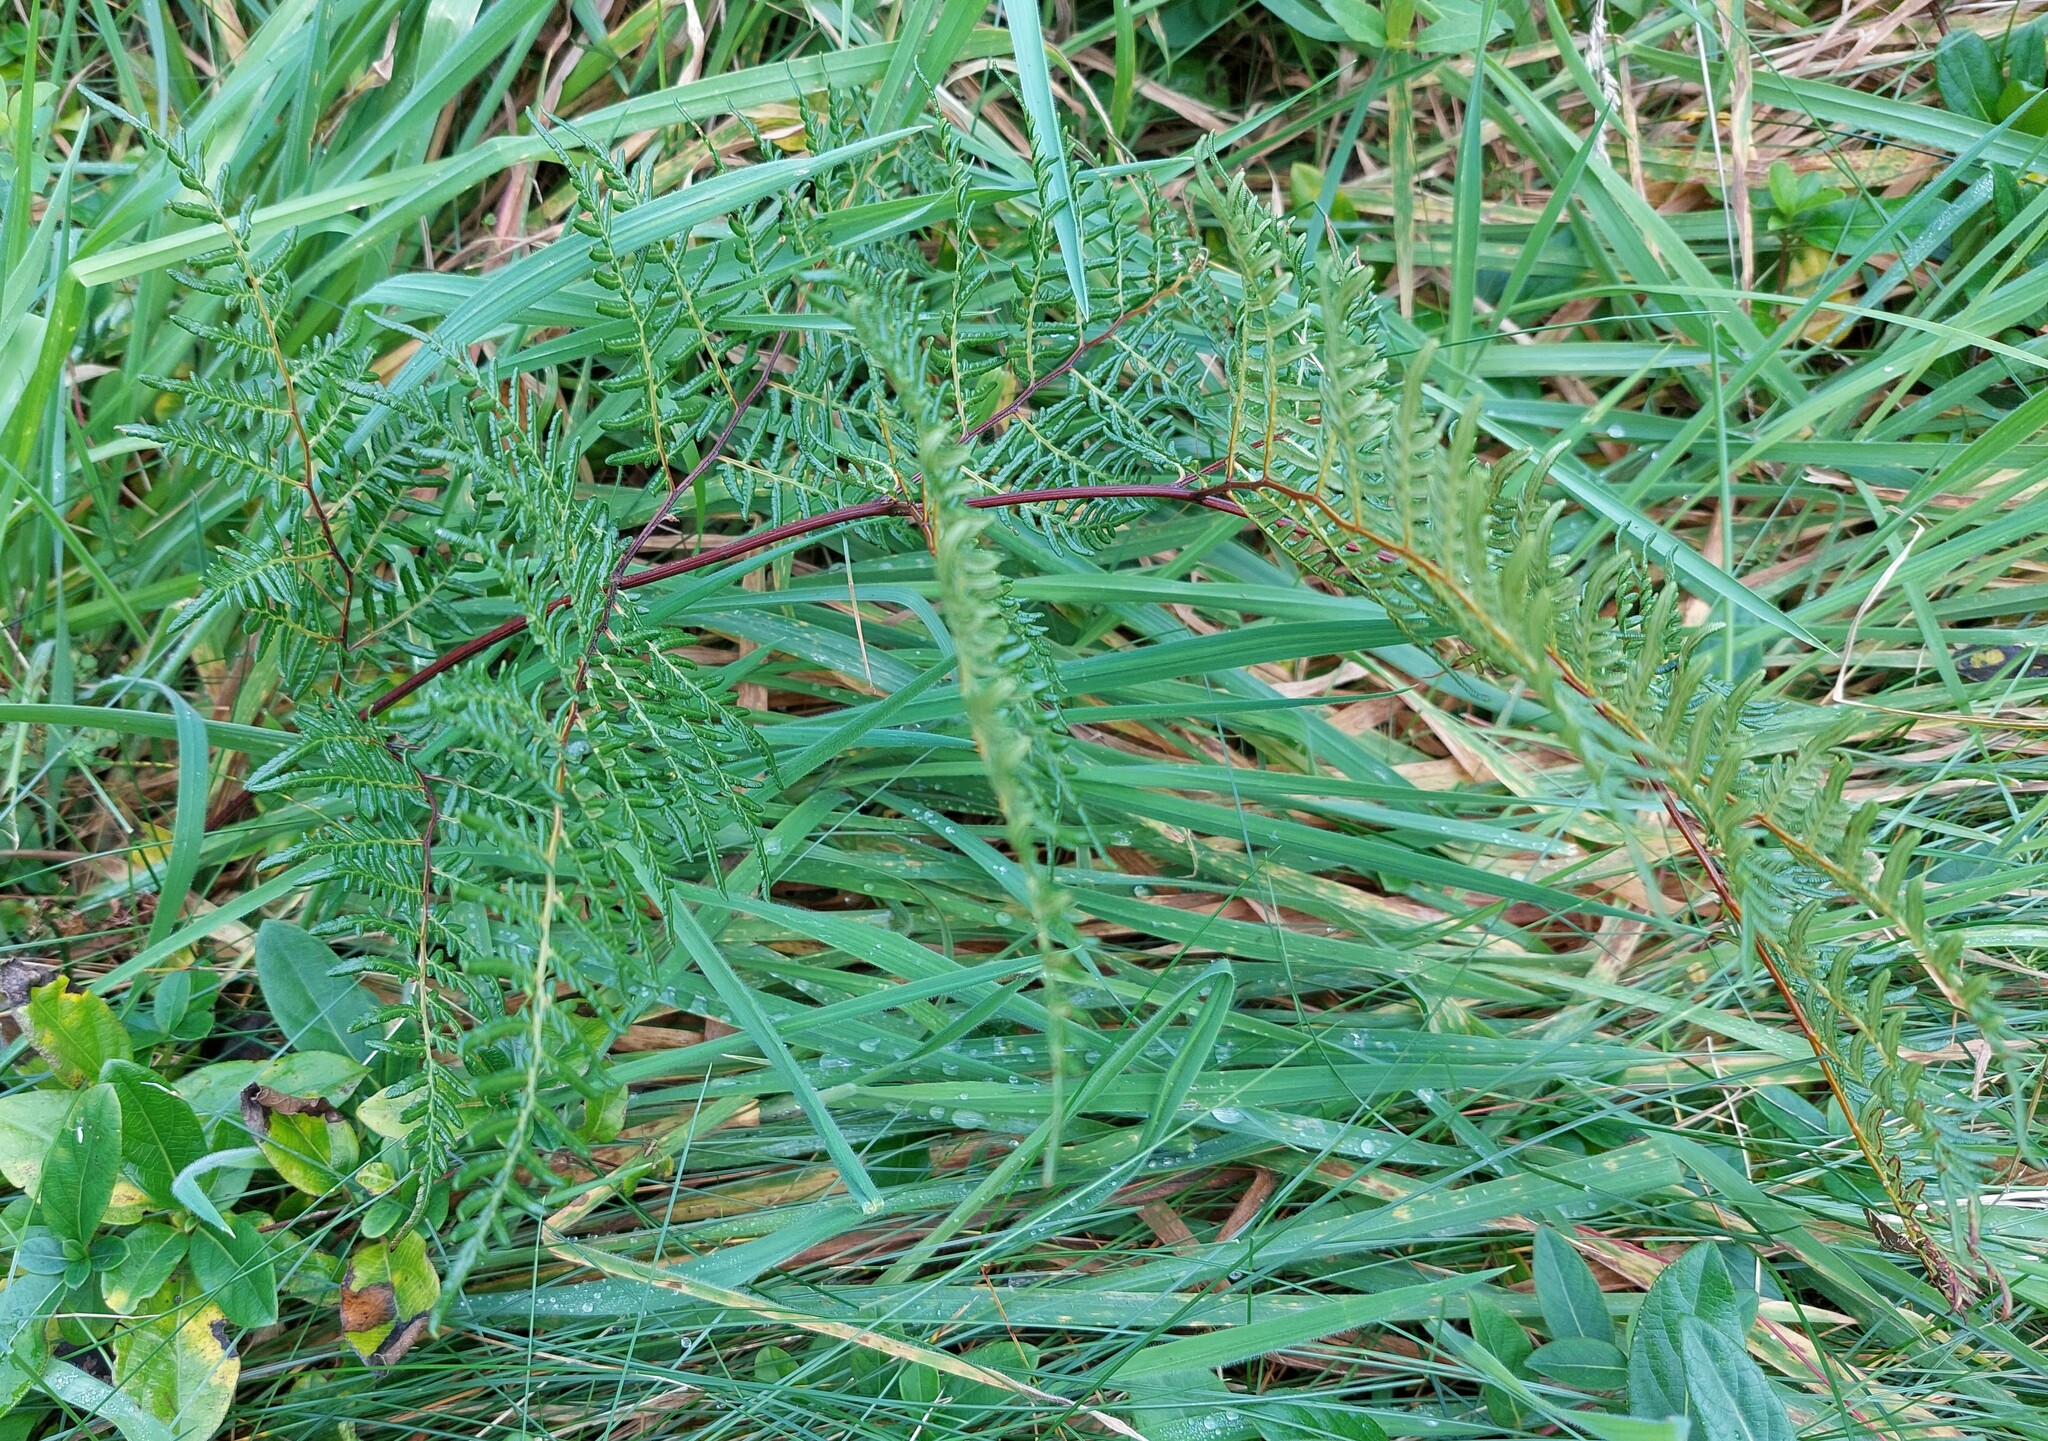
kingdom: Plantae
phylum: Tracheophyta
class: Polypodiopsida
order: Polypodiales
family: Dennstaedtiaceae
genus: Pteridium
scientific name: Pteridium esculentum
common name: Bracken fern
